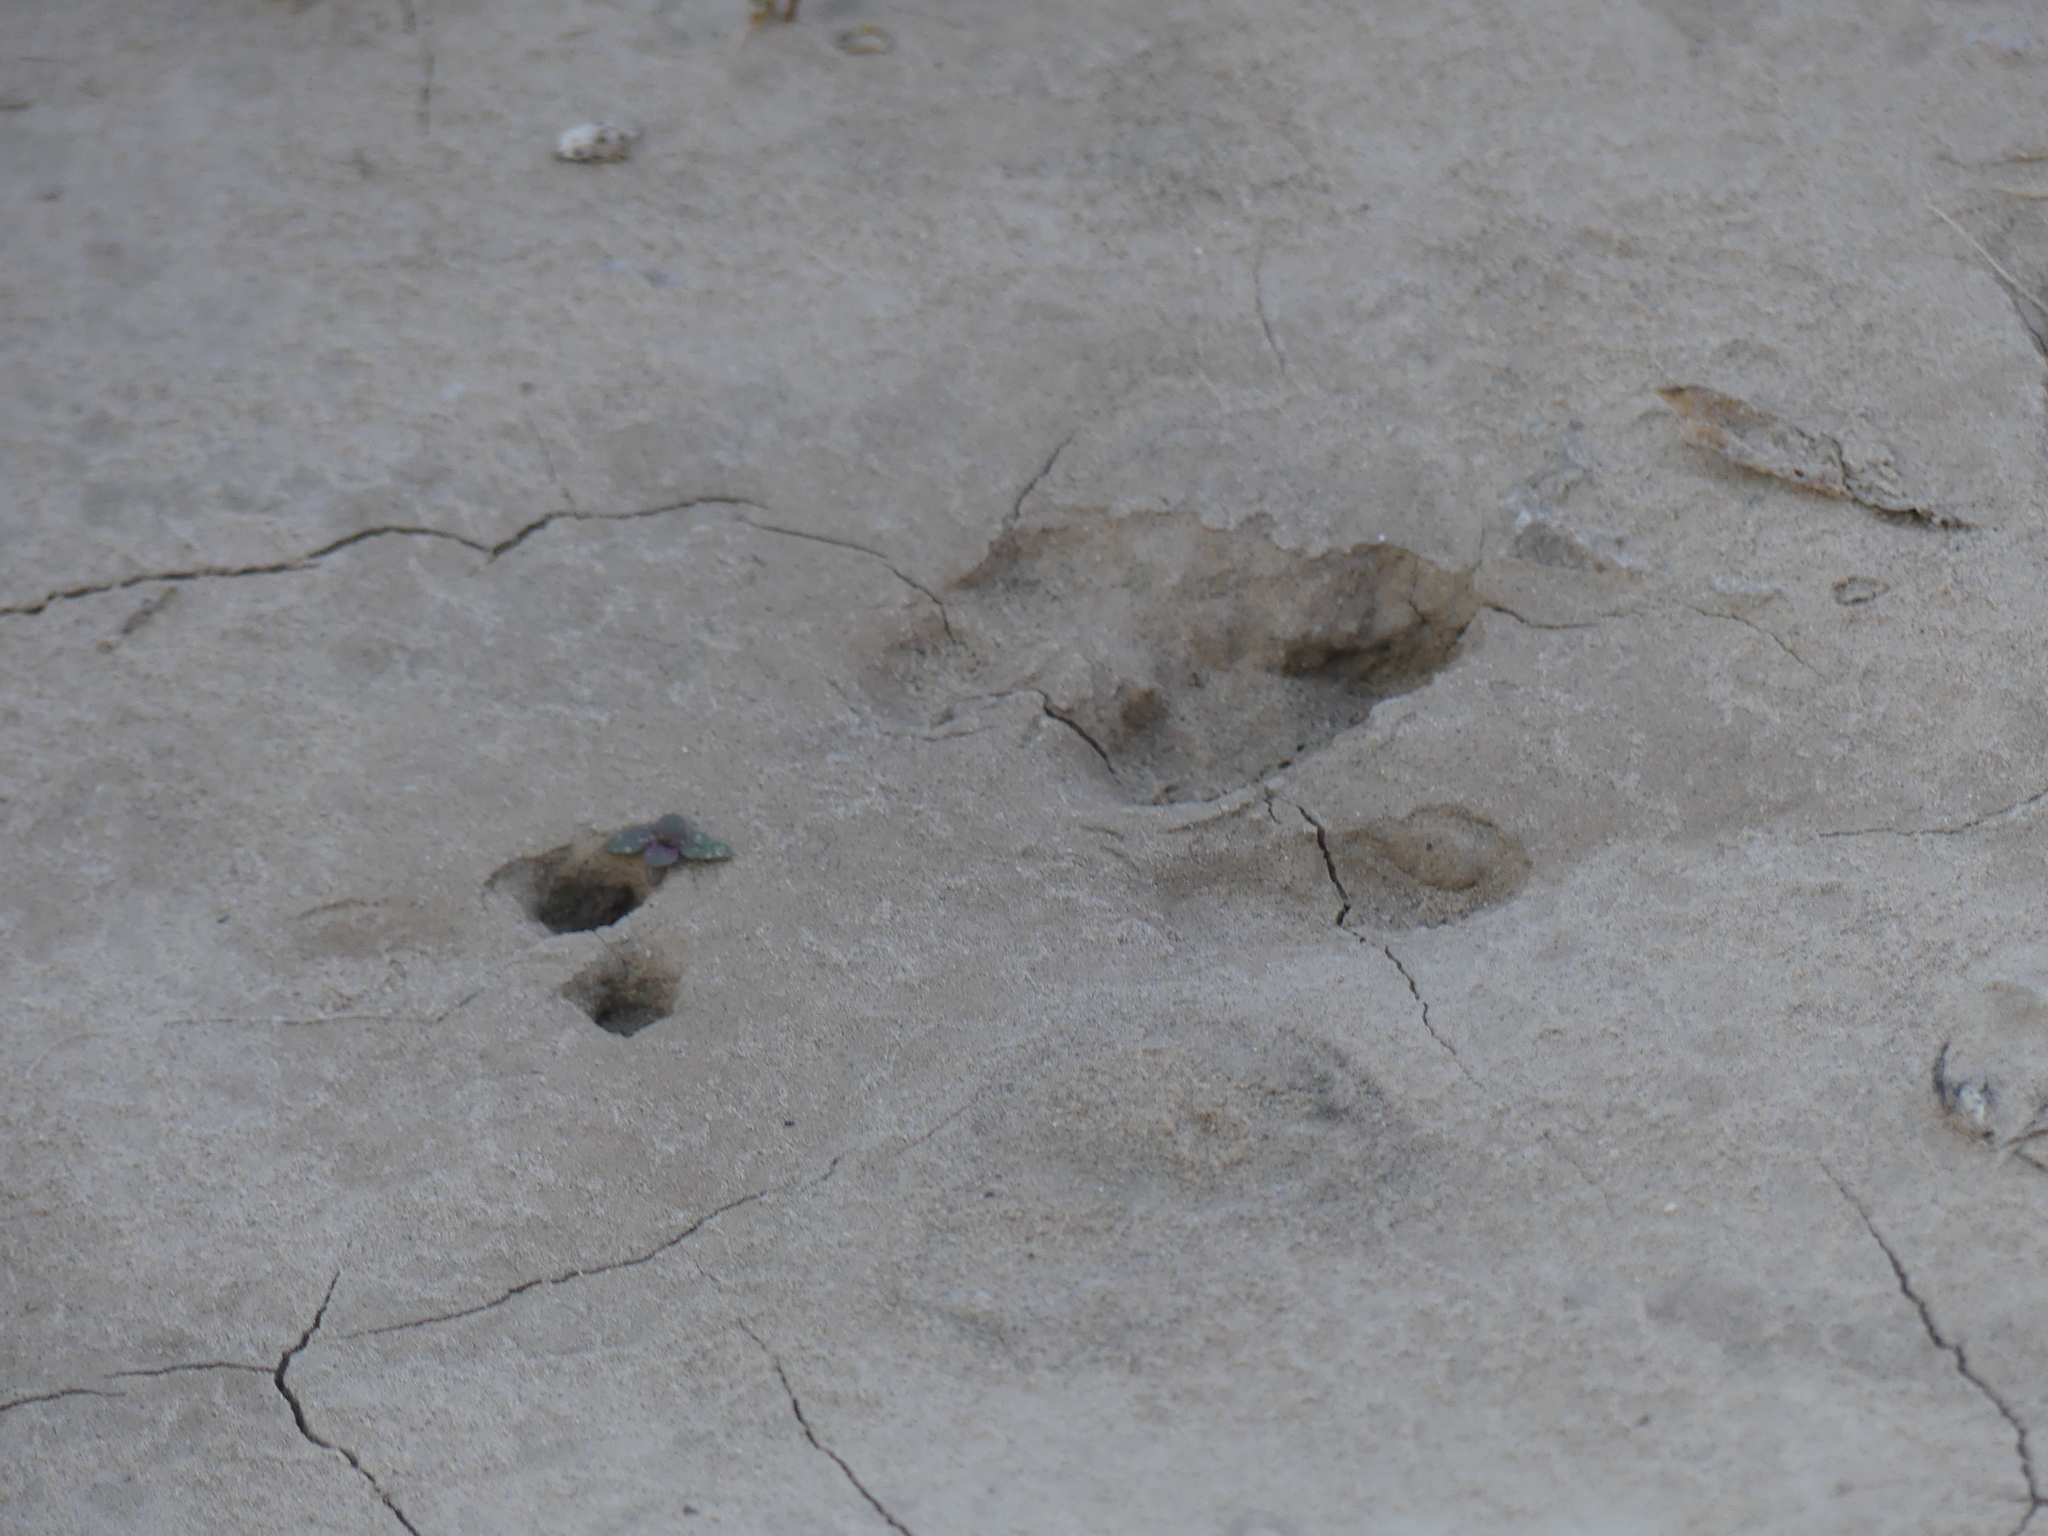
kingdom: Animalia
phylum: Chordata
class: Mammalia
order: Cingulata
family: Dasypodidae
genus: Dasypus
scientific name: Dasypus novemcinctus
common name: Nine-banded armadillo
